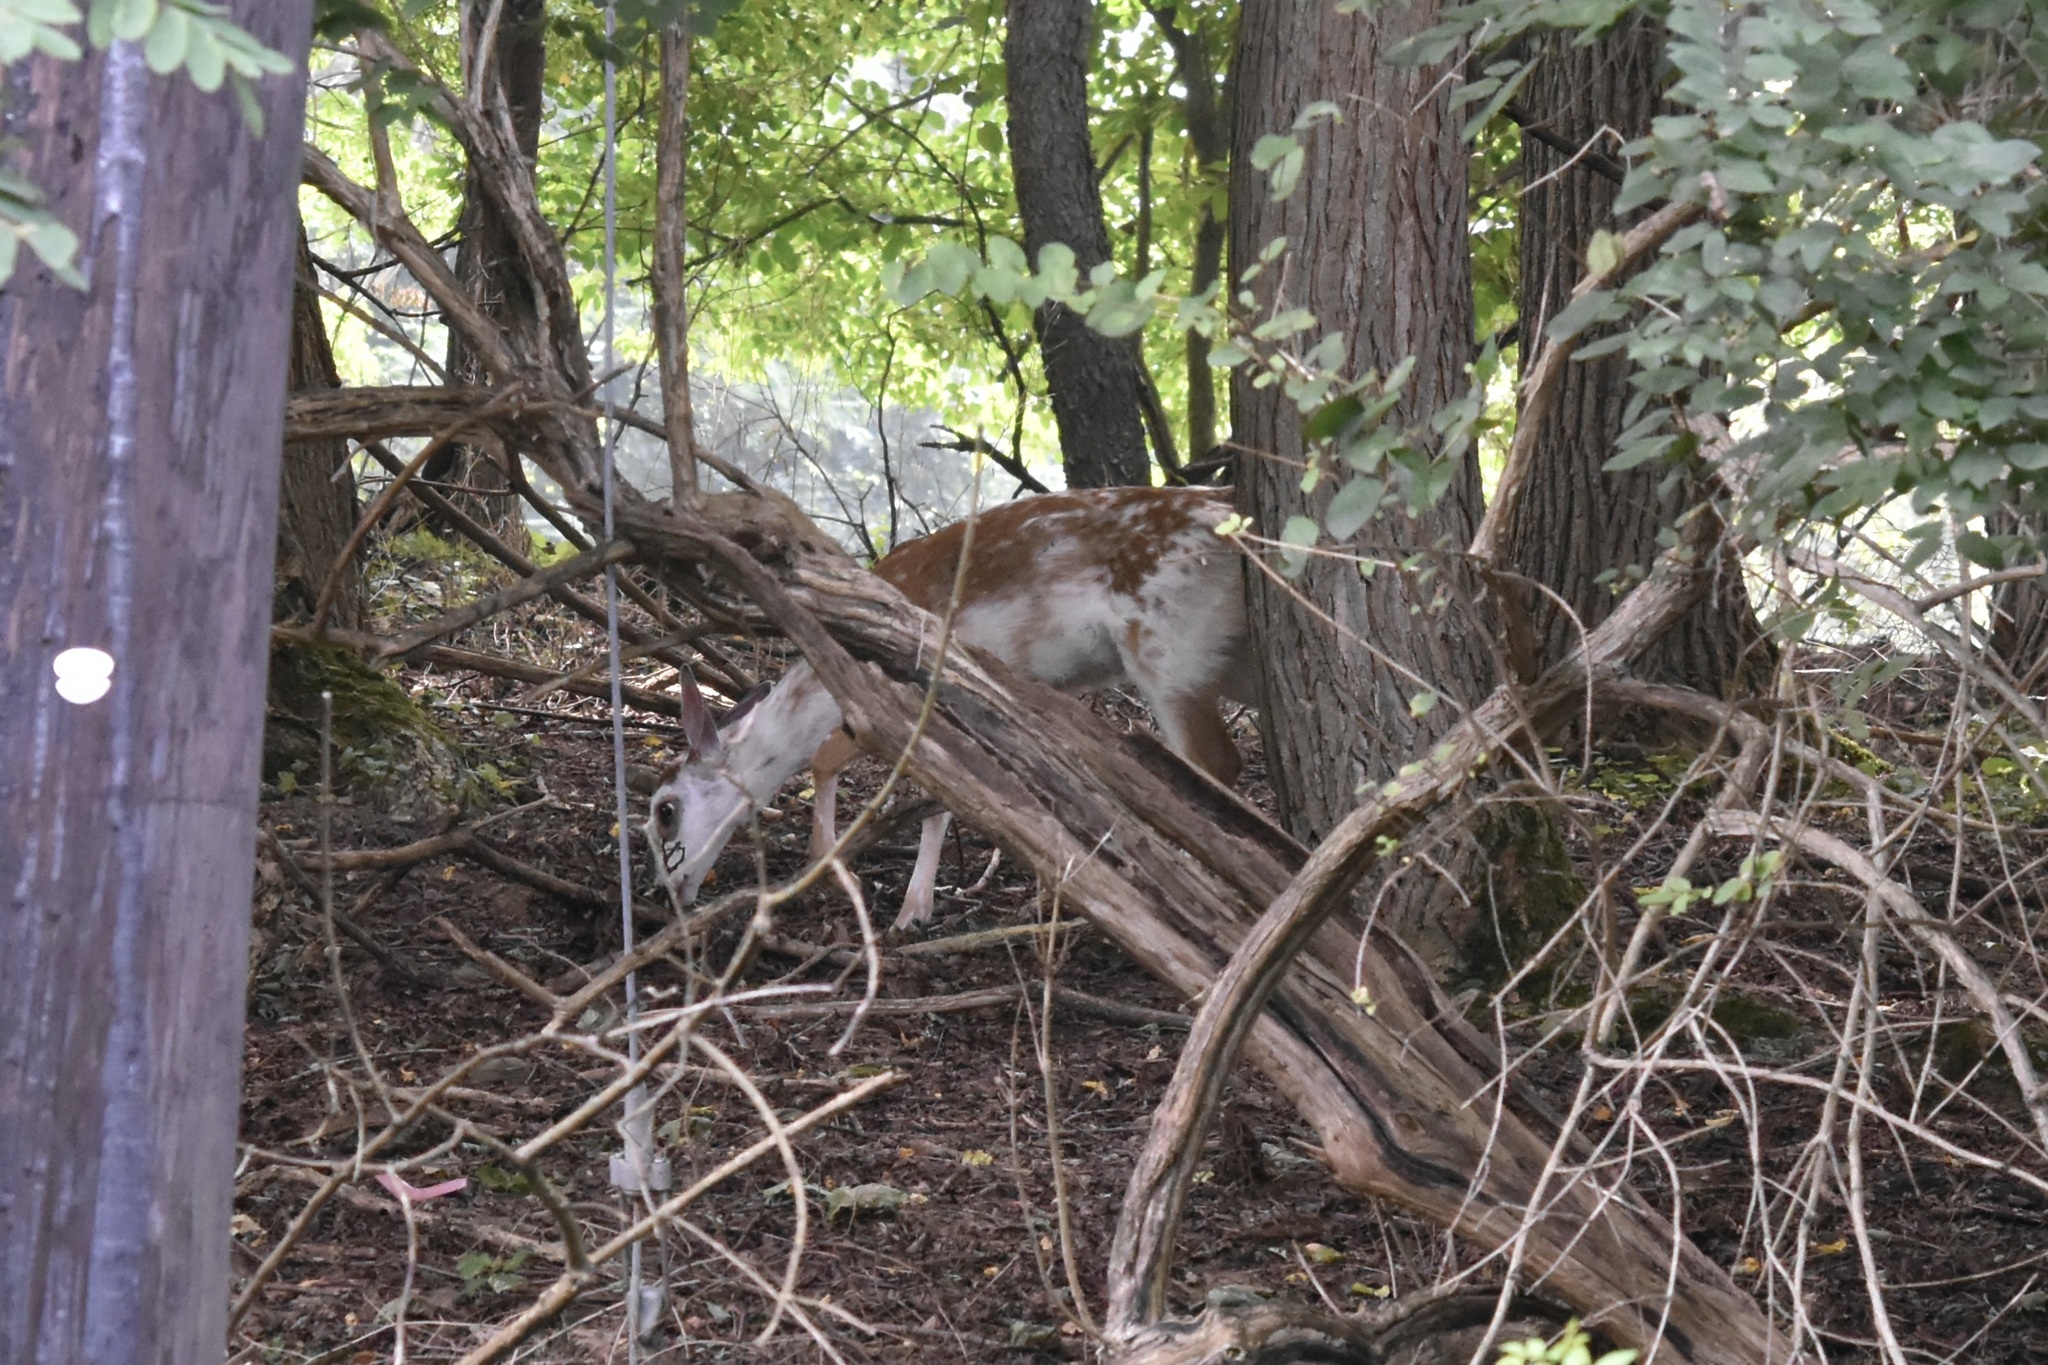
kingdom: Animalia
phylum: Chordata
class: Mammalia
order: Artiodactyla
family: Cervidae
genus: Odocoileus
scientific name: Odocoileus virginianus
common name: White-tailed deer
